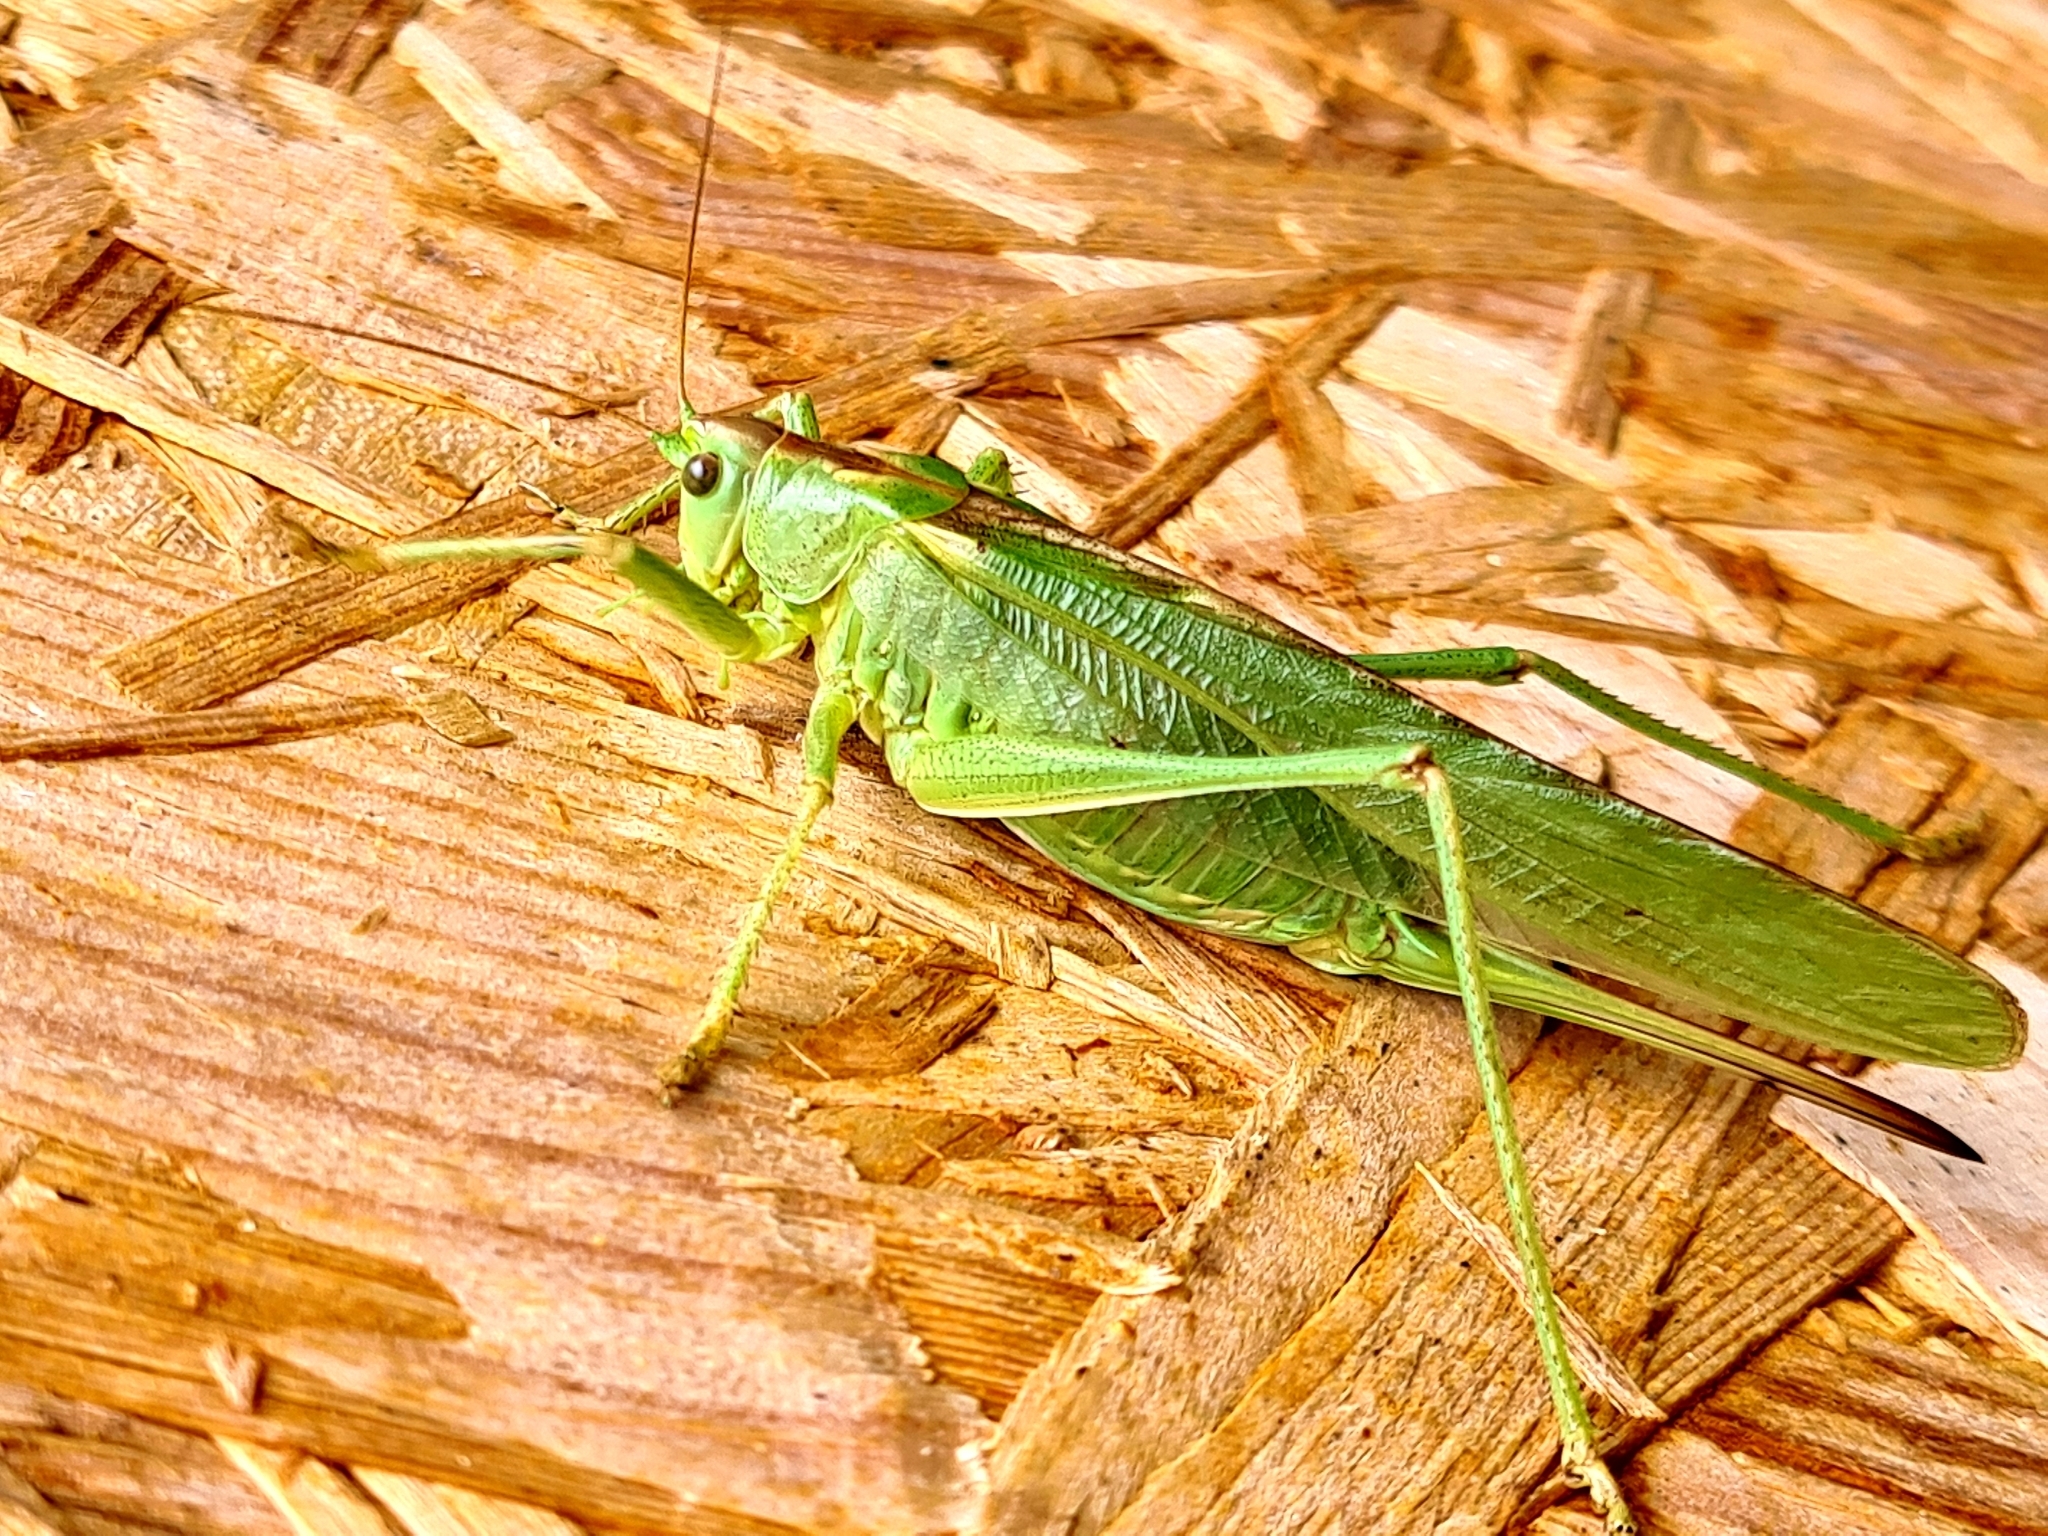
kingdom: Animalia
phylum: Arthropoda
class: Insecta
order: Orthoptera
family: Tettigoniidae
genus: Tettigonia
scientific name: Tettigonia viridissima
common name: Great green bush-cricket
